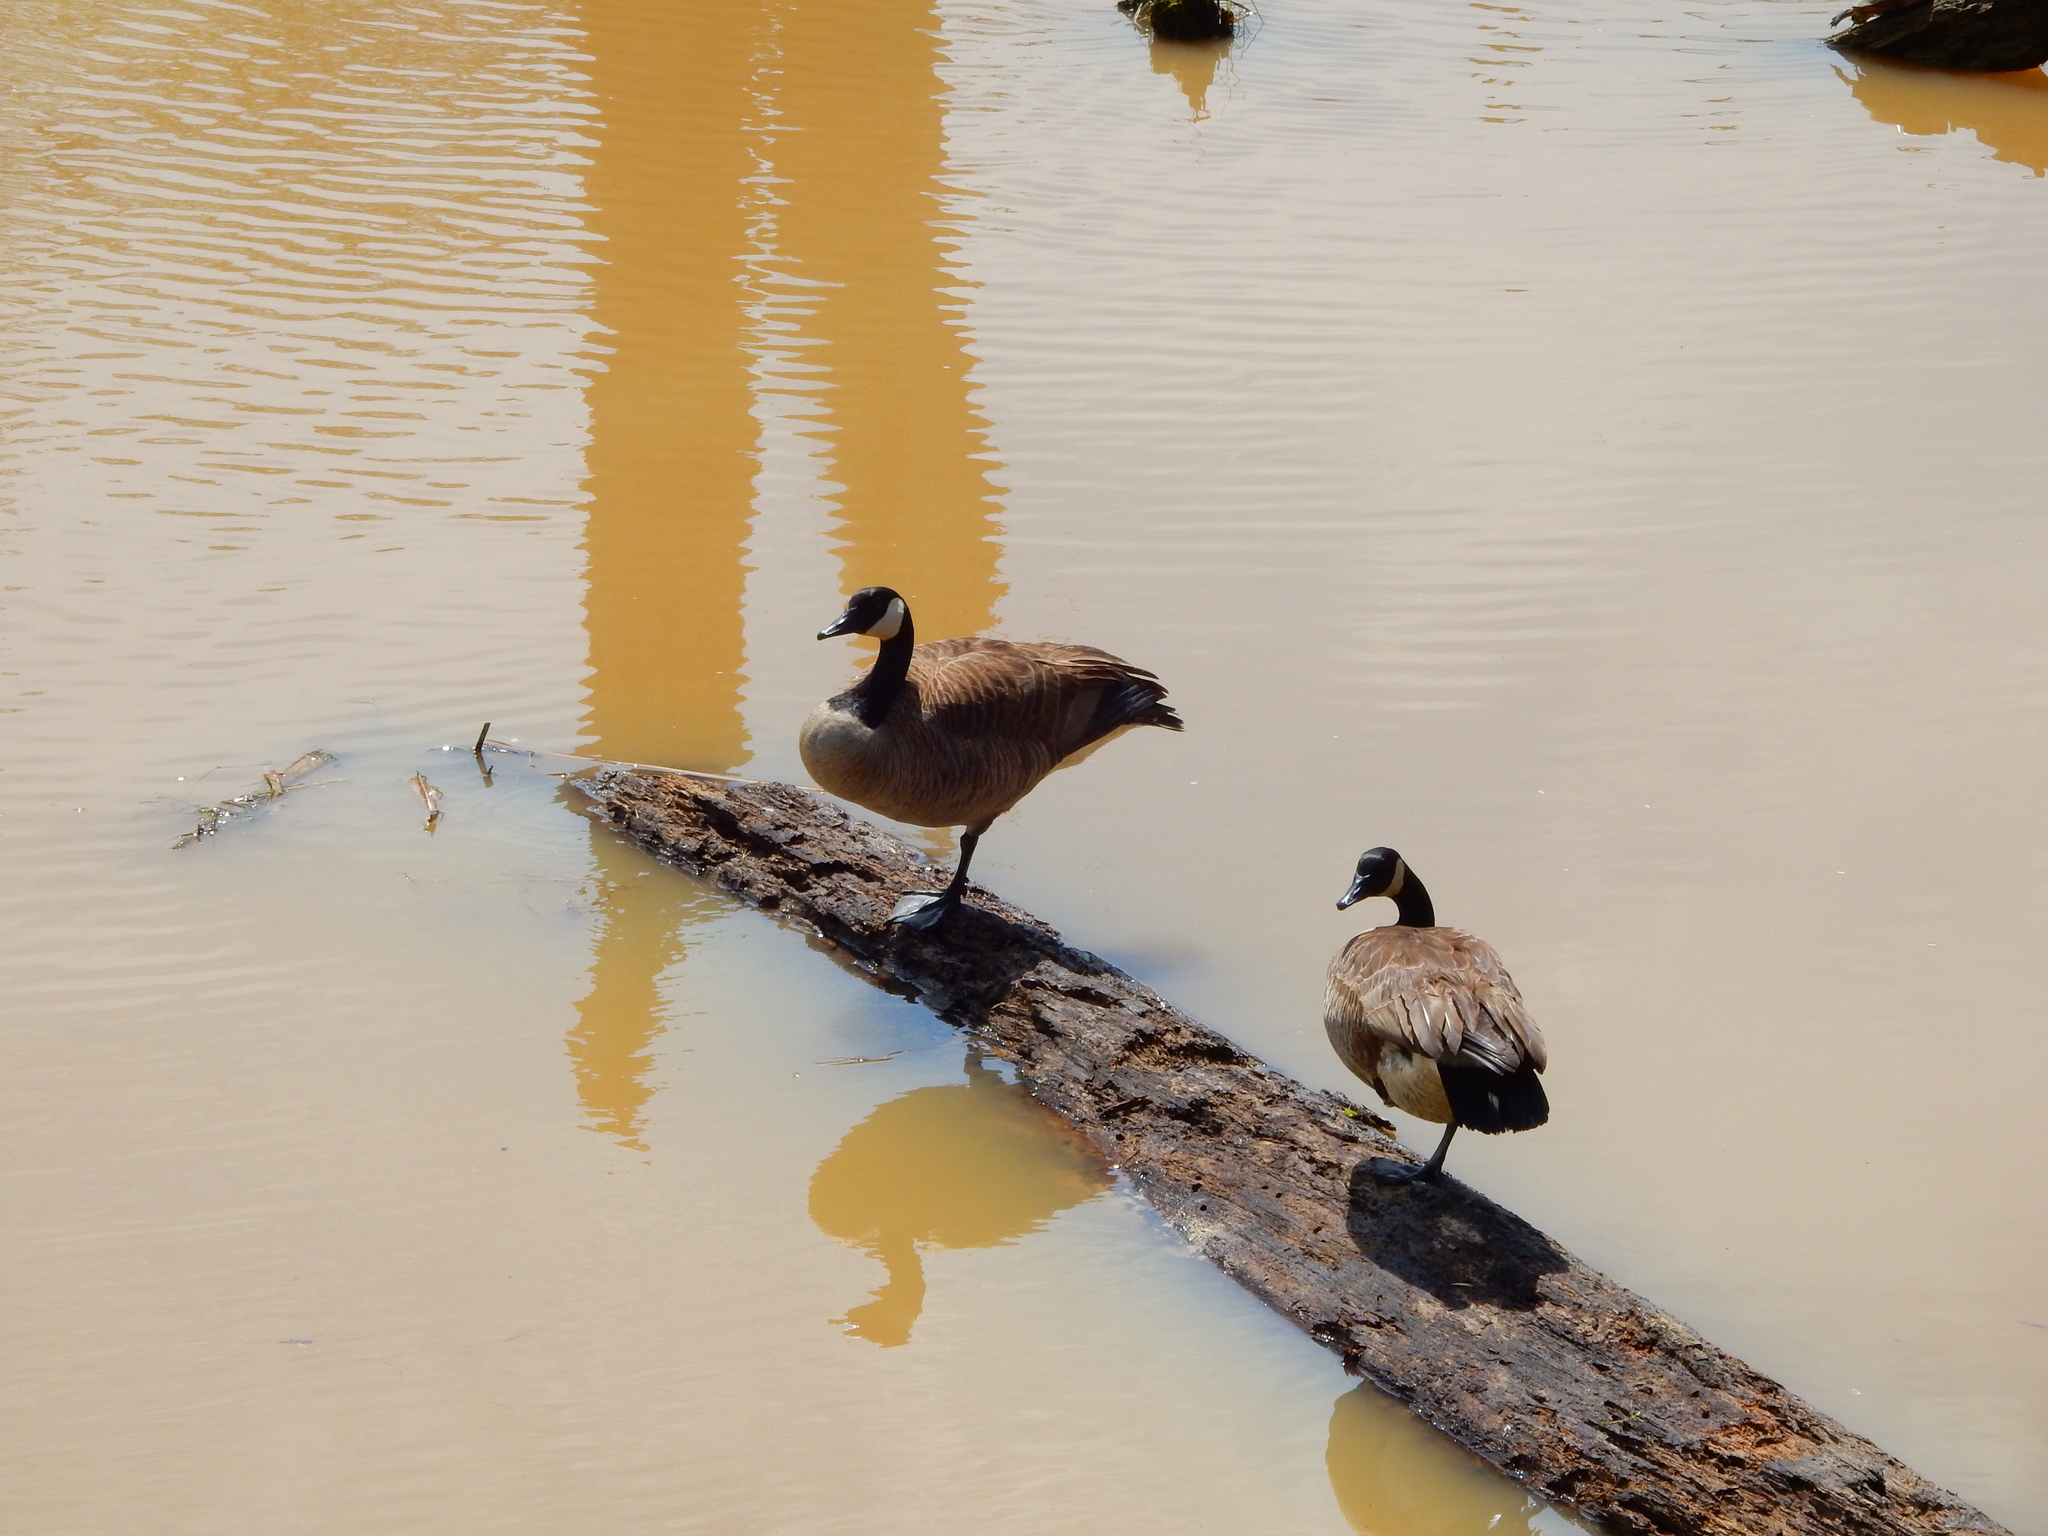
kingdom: Animalia
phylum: Chordata
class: Aves
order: Anseriformes
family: Anatidae
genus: Branta
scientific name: Branta canadensis
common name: Canada goose
